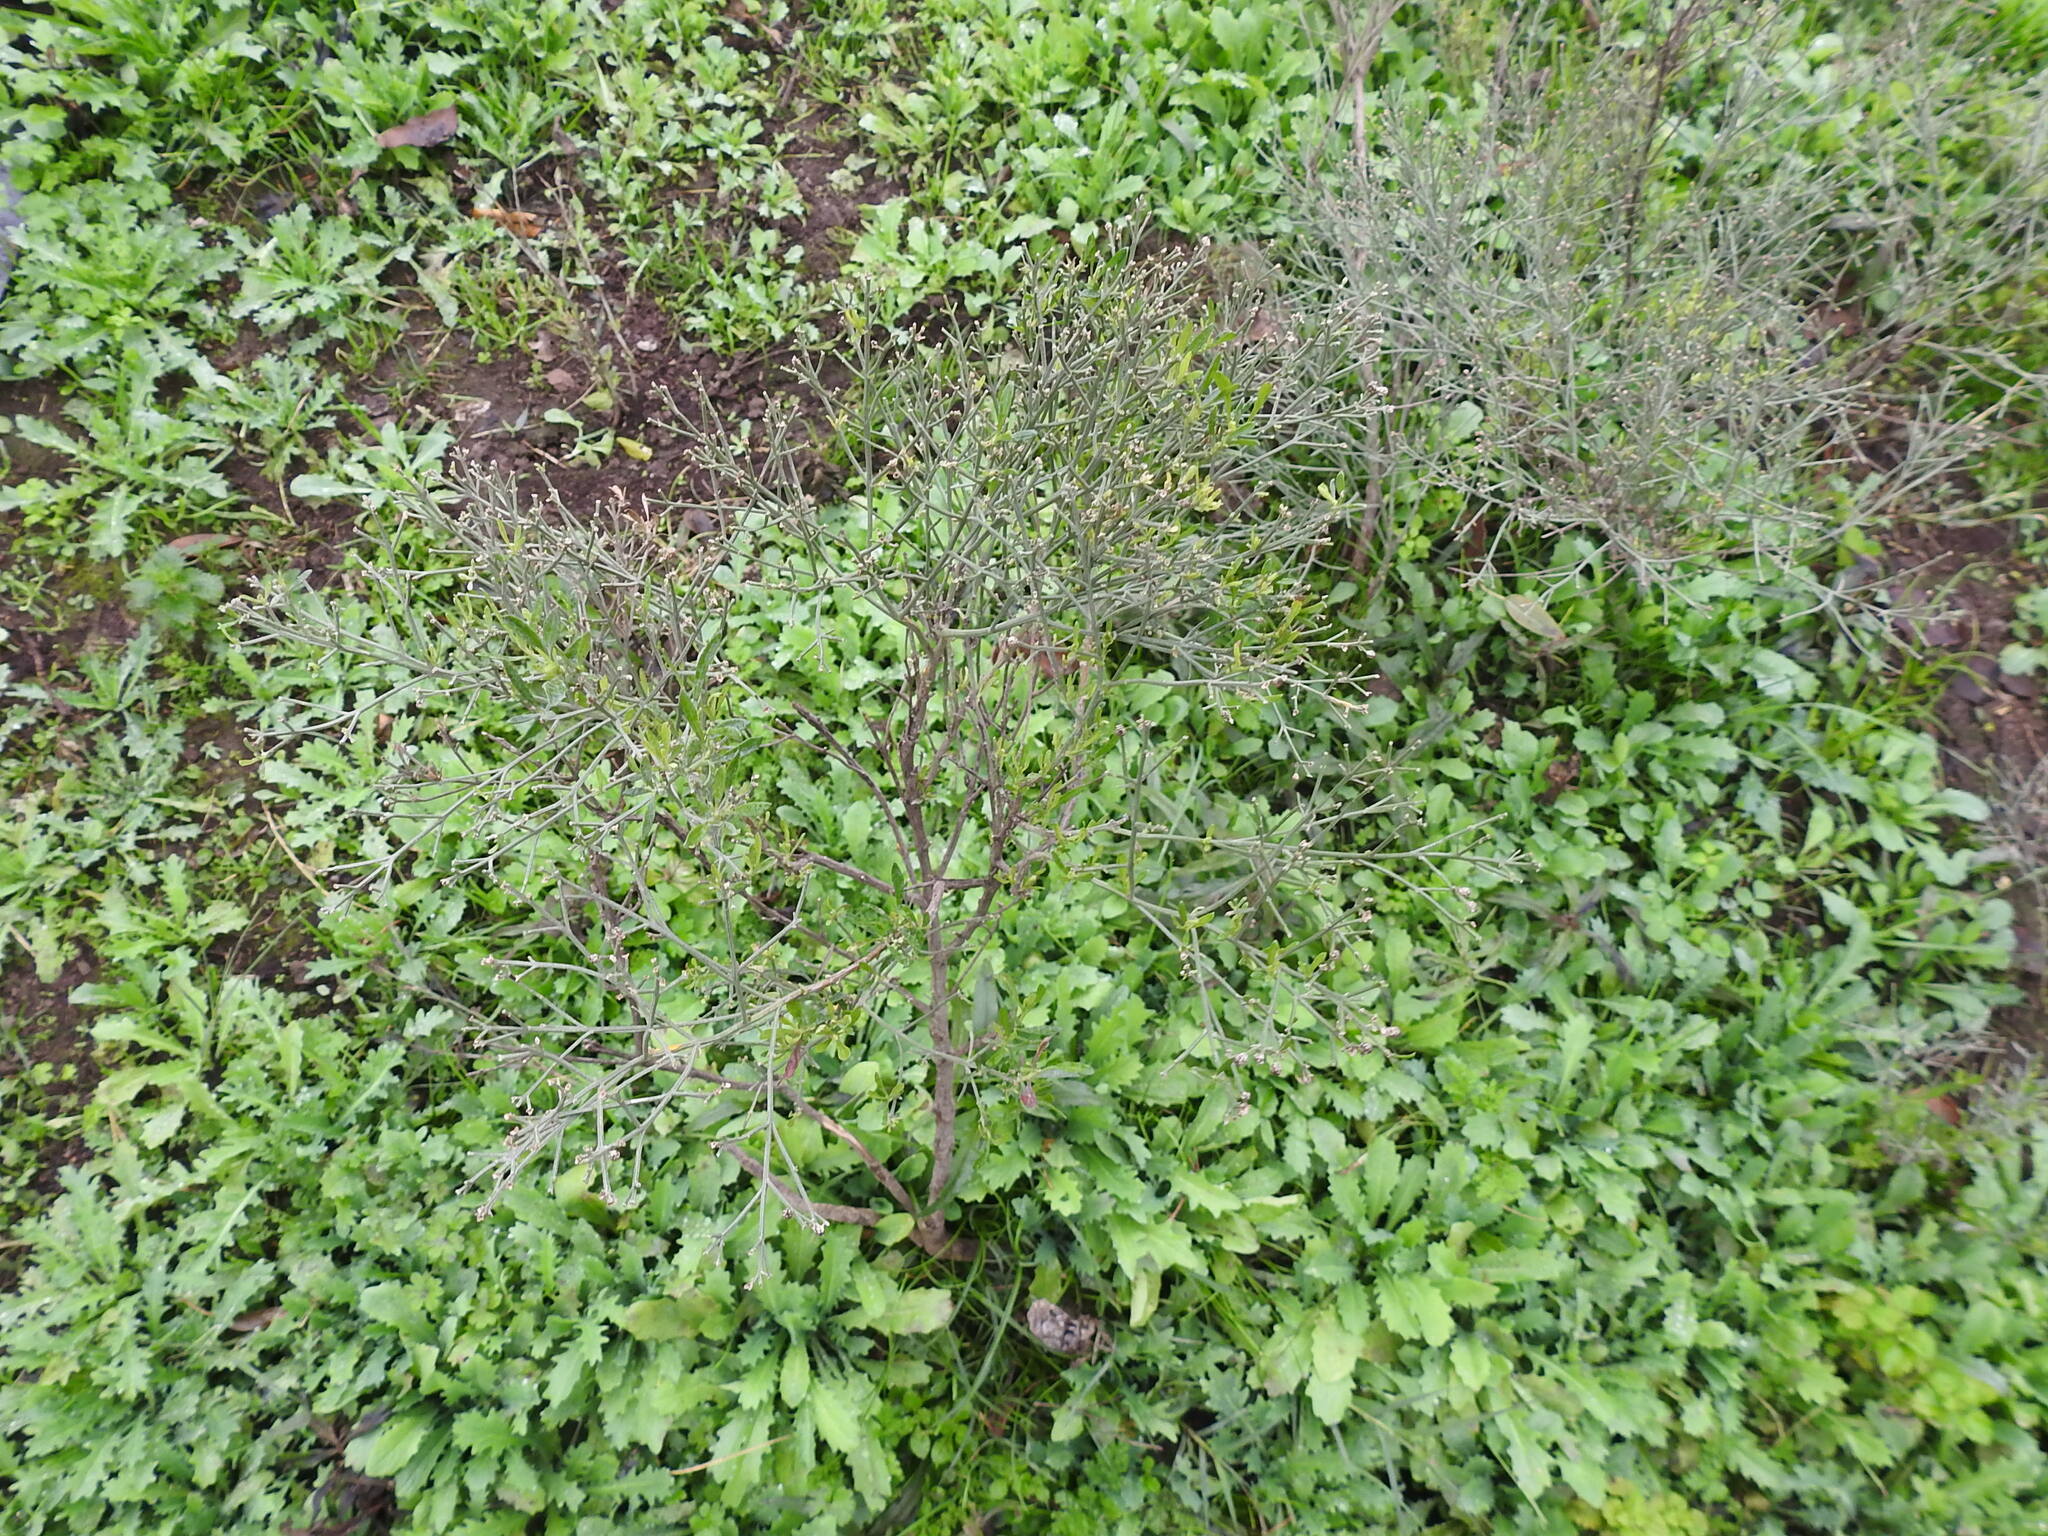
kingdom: Plantae
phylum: Tracheophyta
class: Magnoliopsida
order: Asterales
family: Asteraceae
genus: Baccharis
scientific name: Baccharis notosergila
